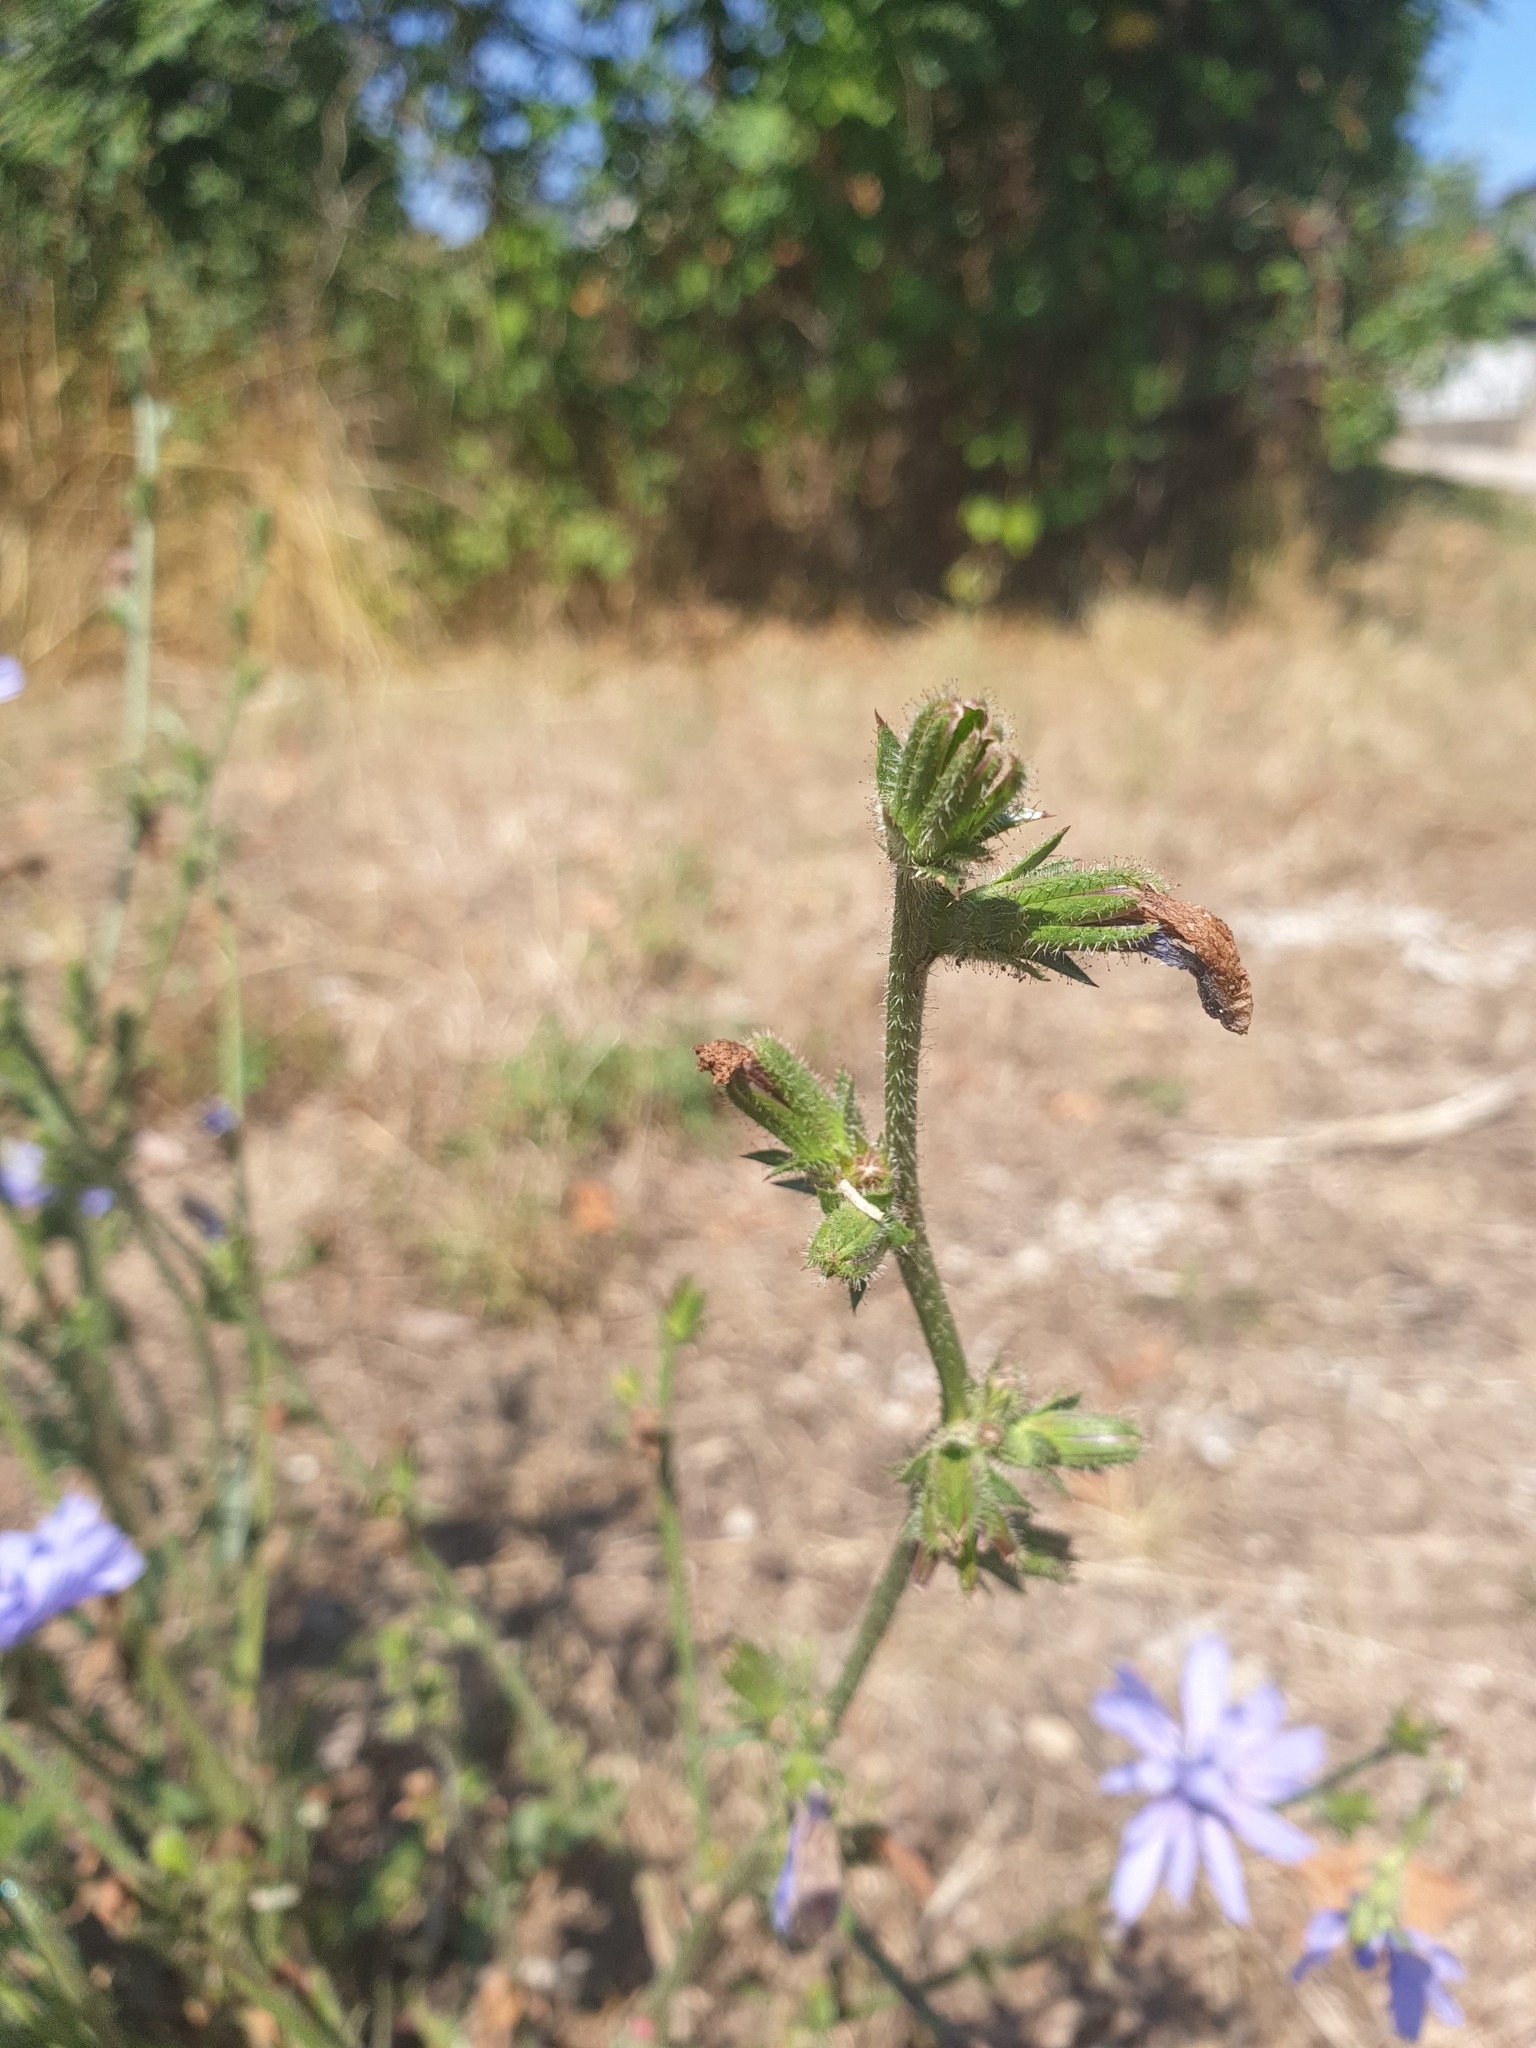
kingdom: Plantae
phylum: Tracheophyta
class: Magnoliopsida
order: Asterales
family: Asteraceae
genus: Cichorium
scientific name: Cichorium intybus
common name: Chicory
